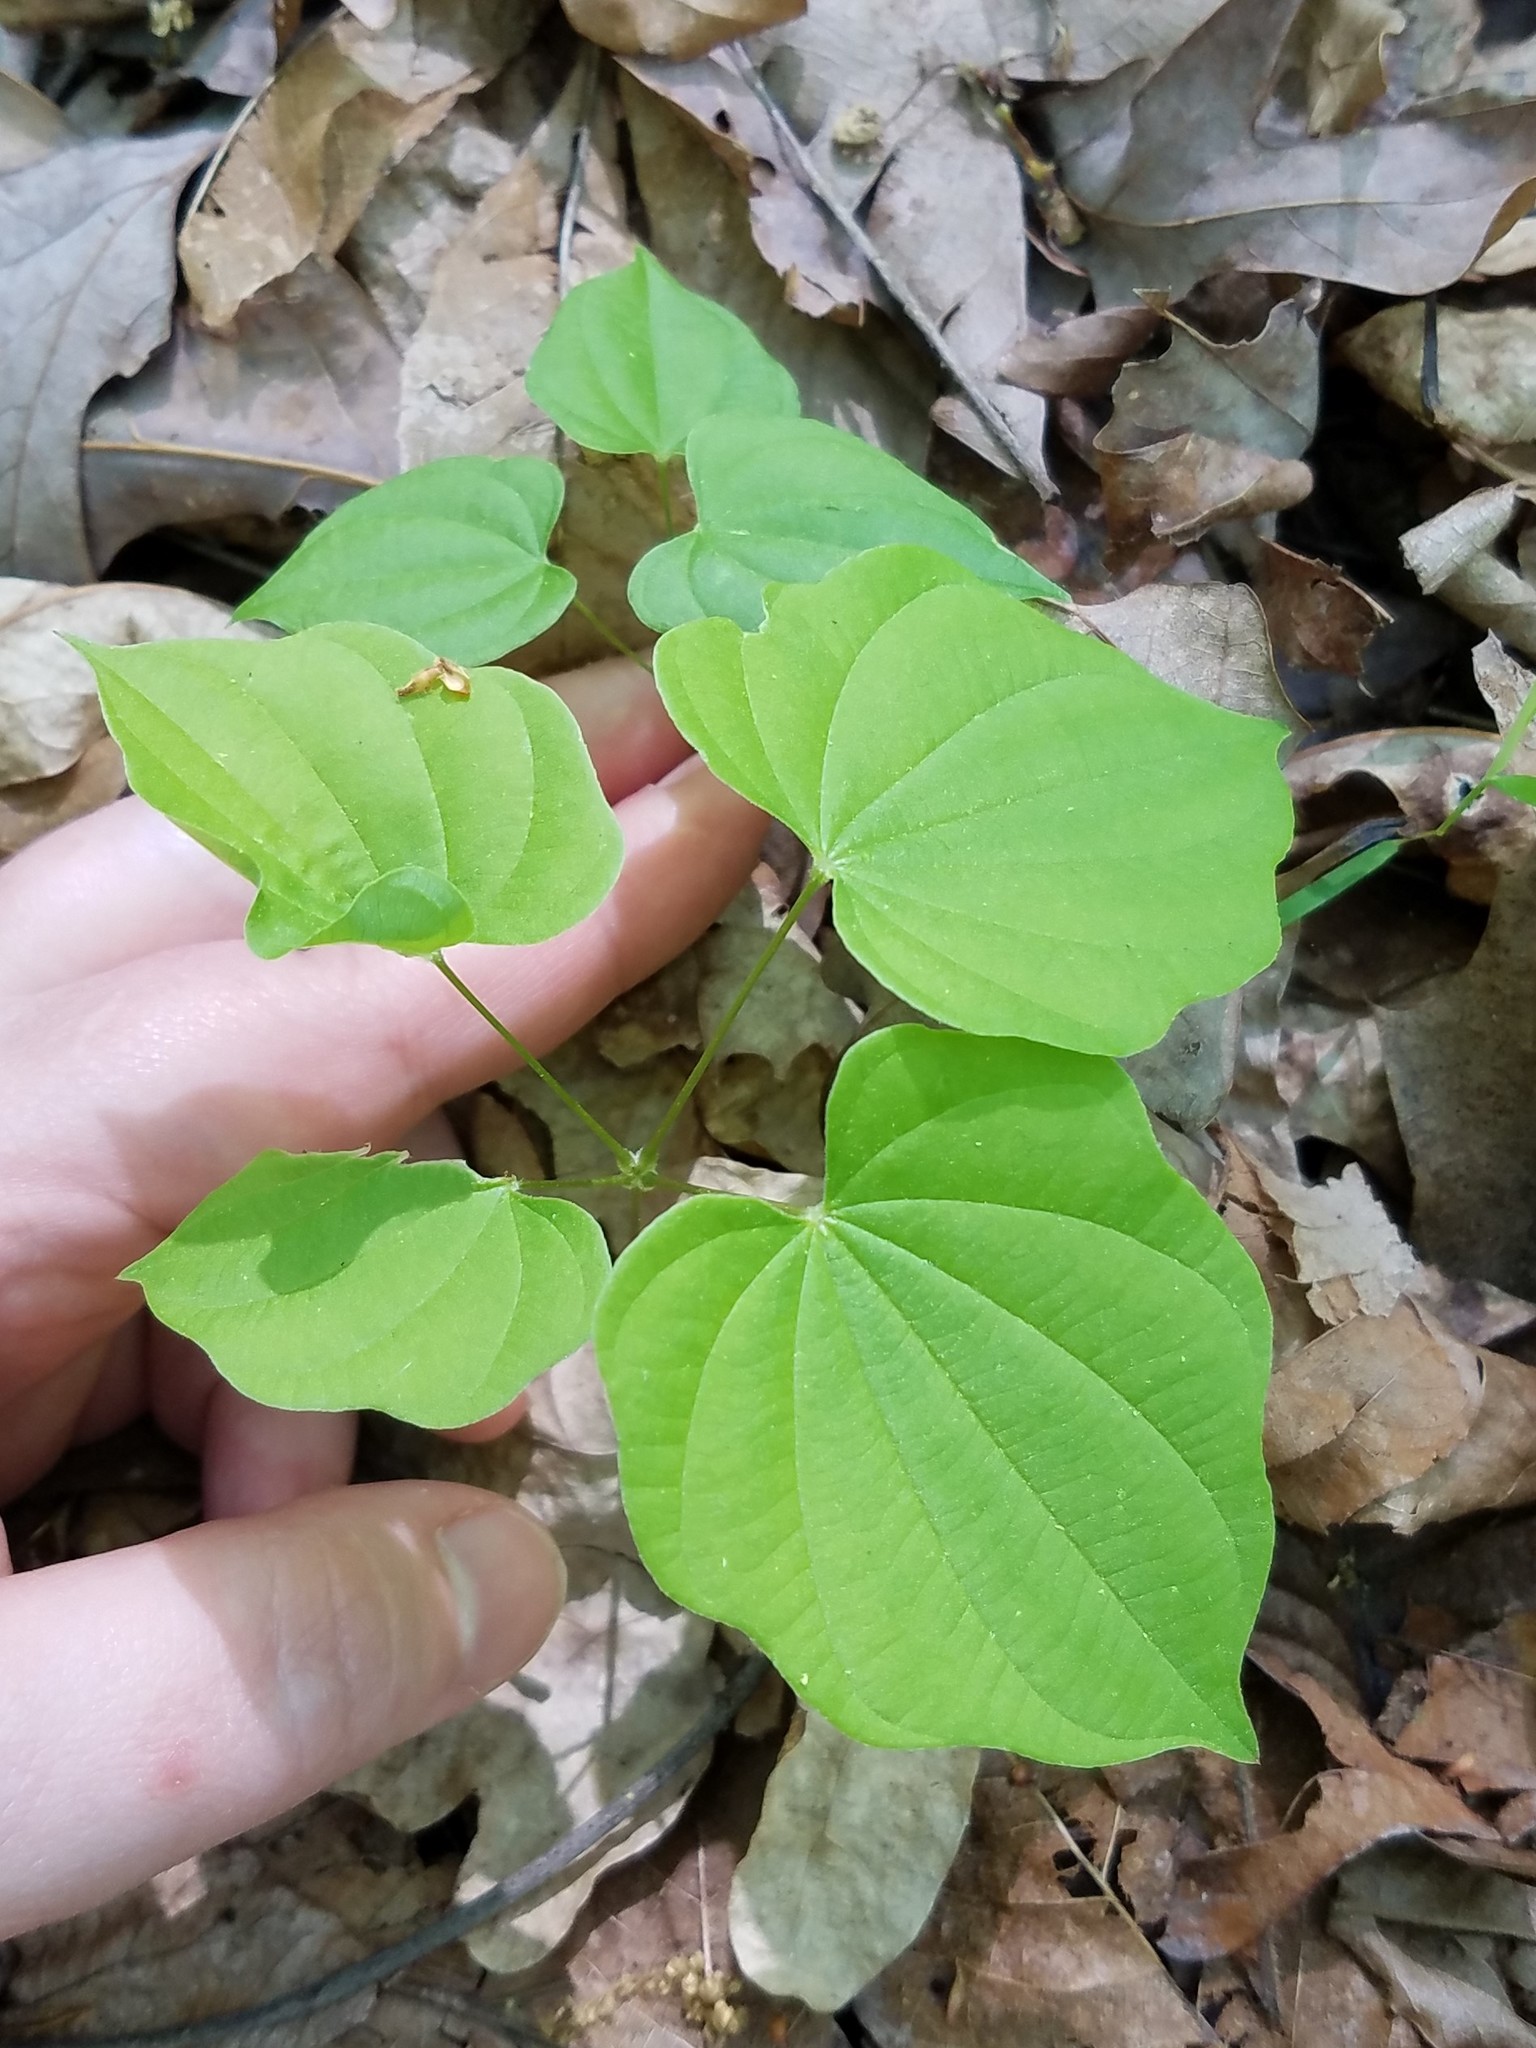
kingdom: Plantae
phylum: Tracheophyta
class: Liliopsida
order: Dioscoreales
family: Dioscoreaceae
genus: Dioscorea
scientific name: Dioscorea villosa
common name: Wild yam
